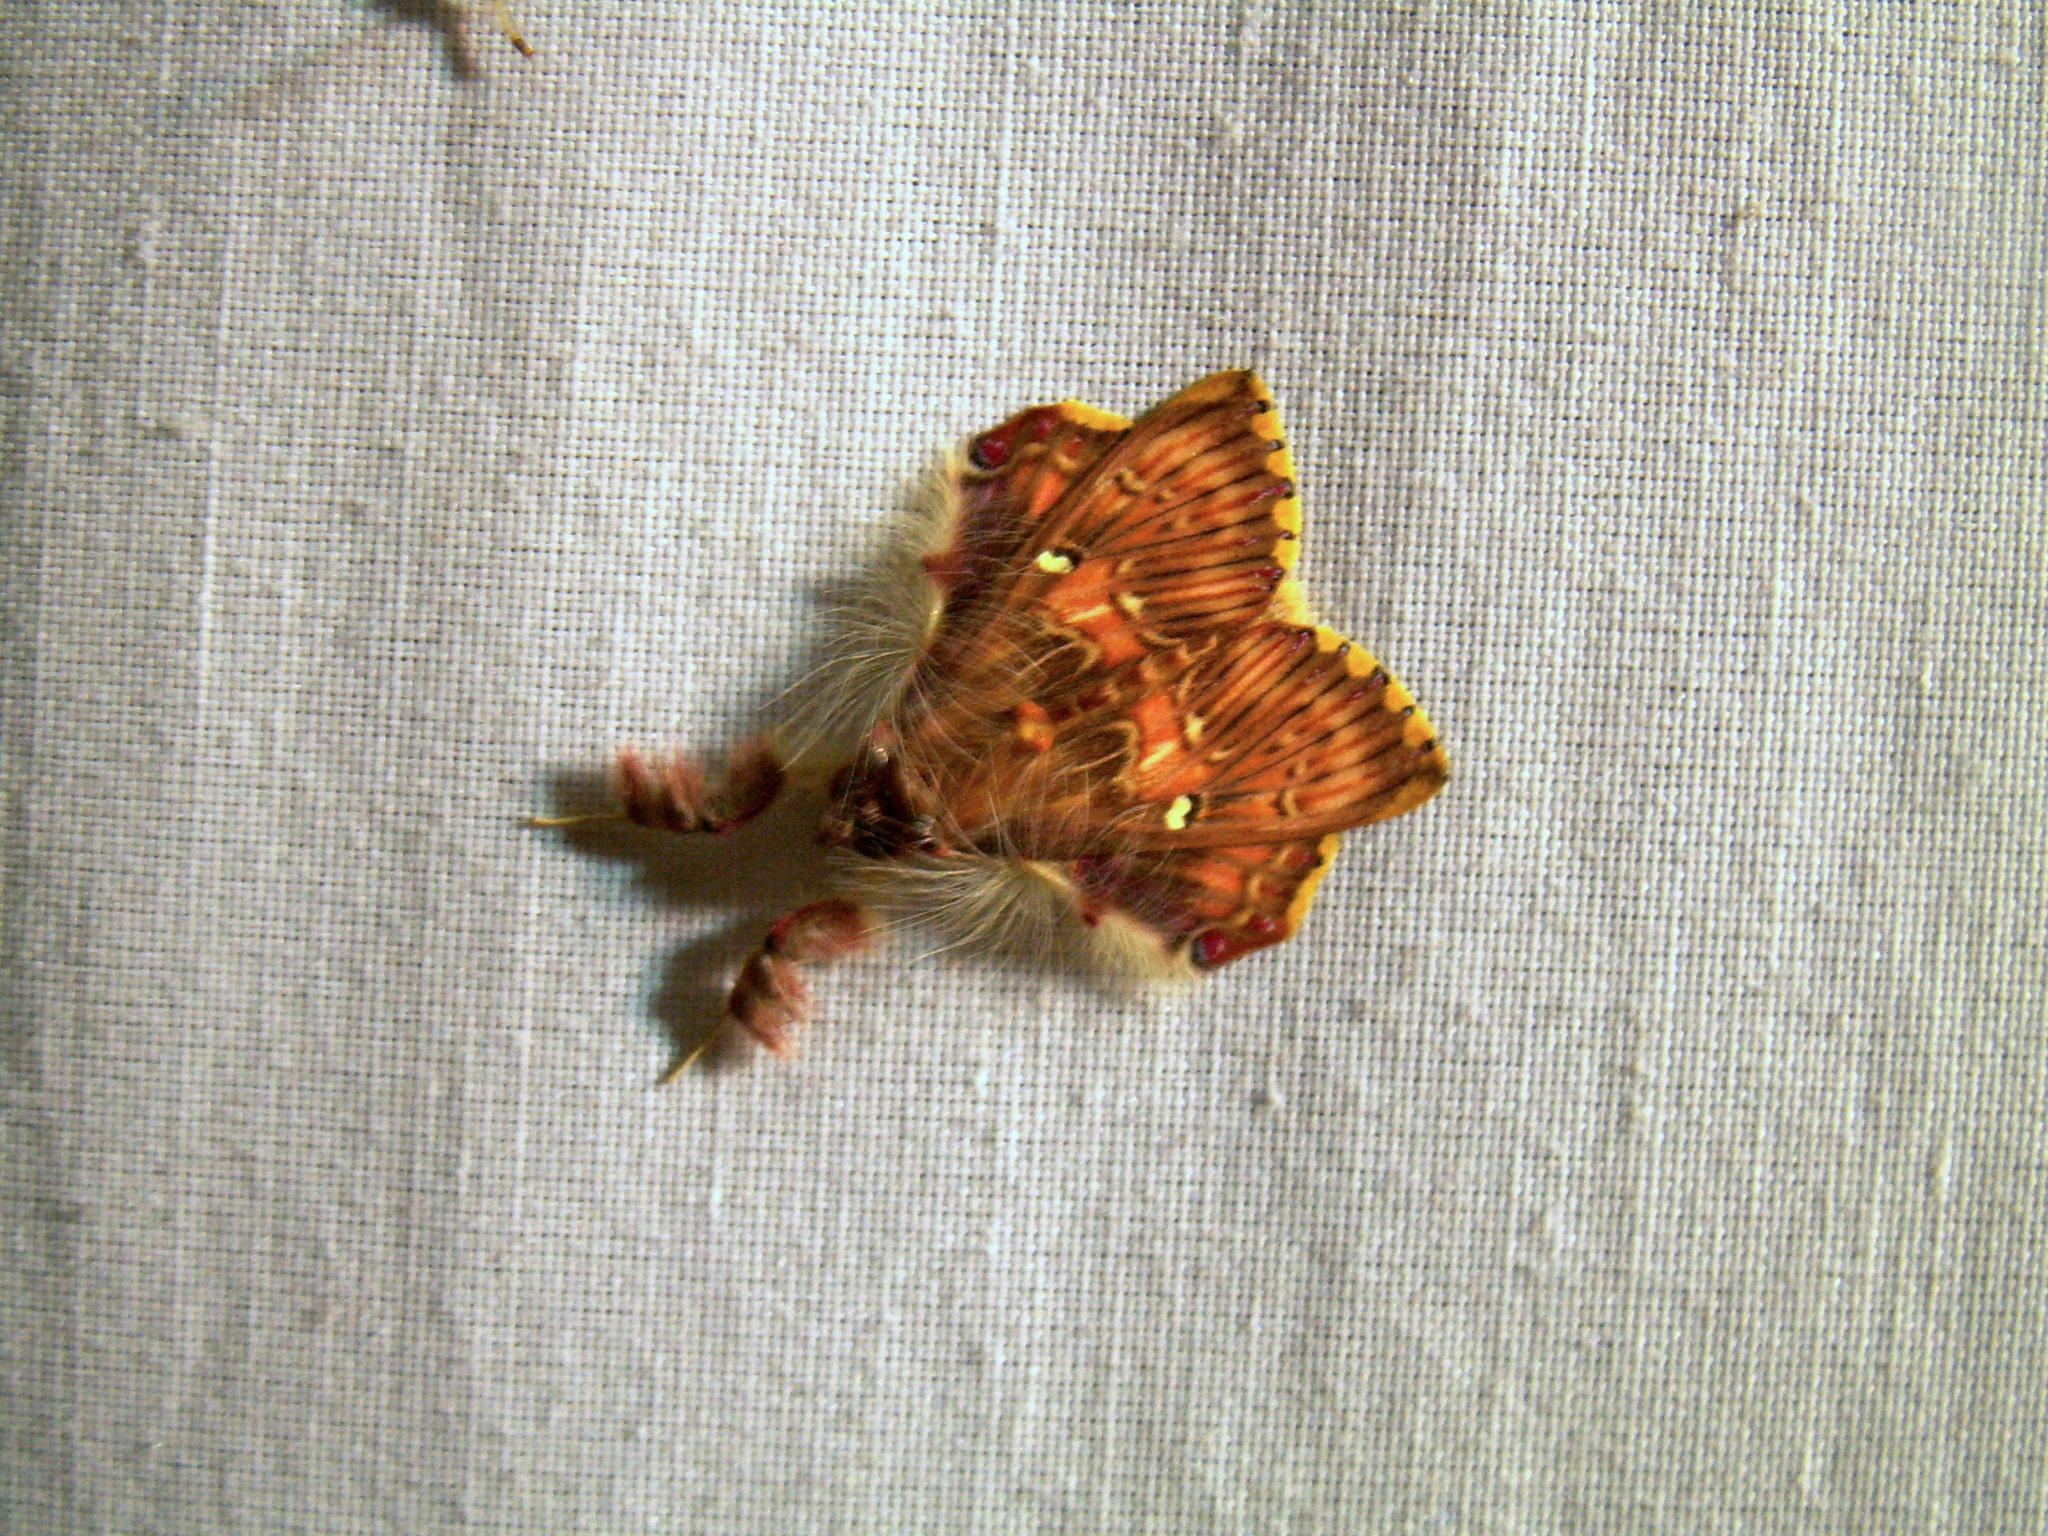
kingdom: Animalia
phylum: Arthropoda
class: Insecta
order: Lepidoptera
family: Erebidae
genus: Sosxetra
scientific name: Sosxetra grata
